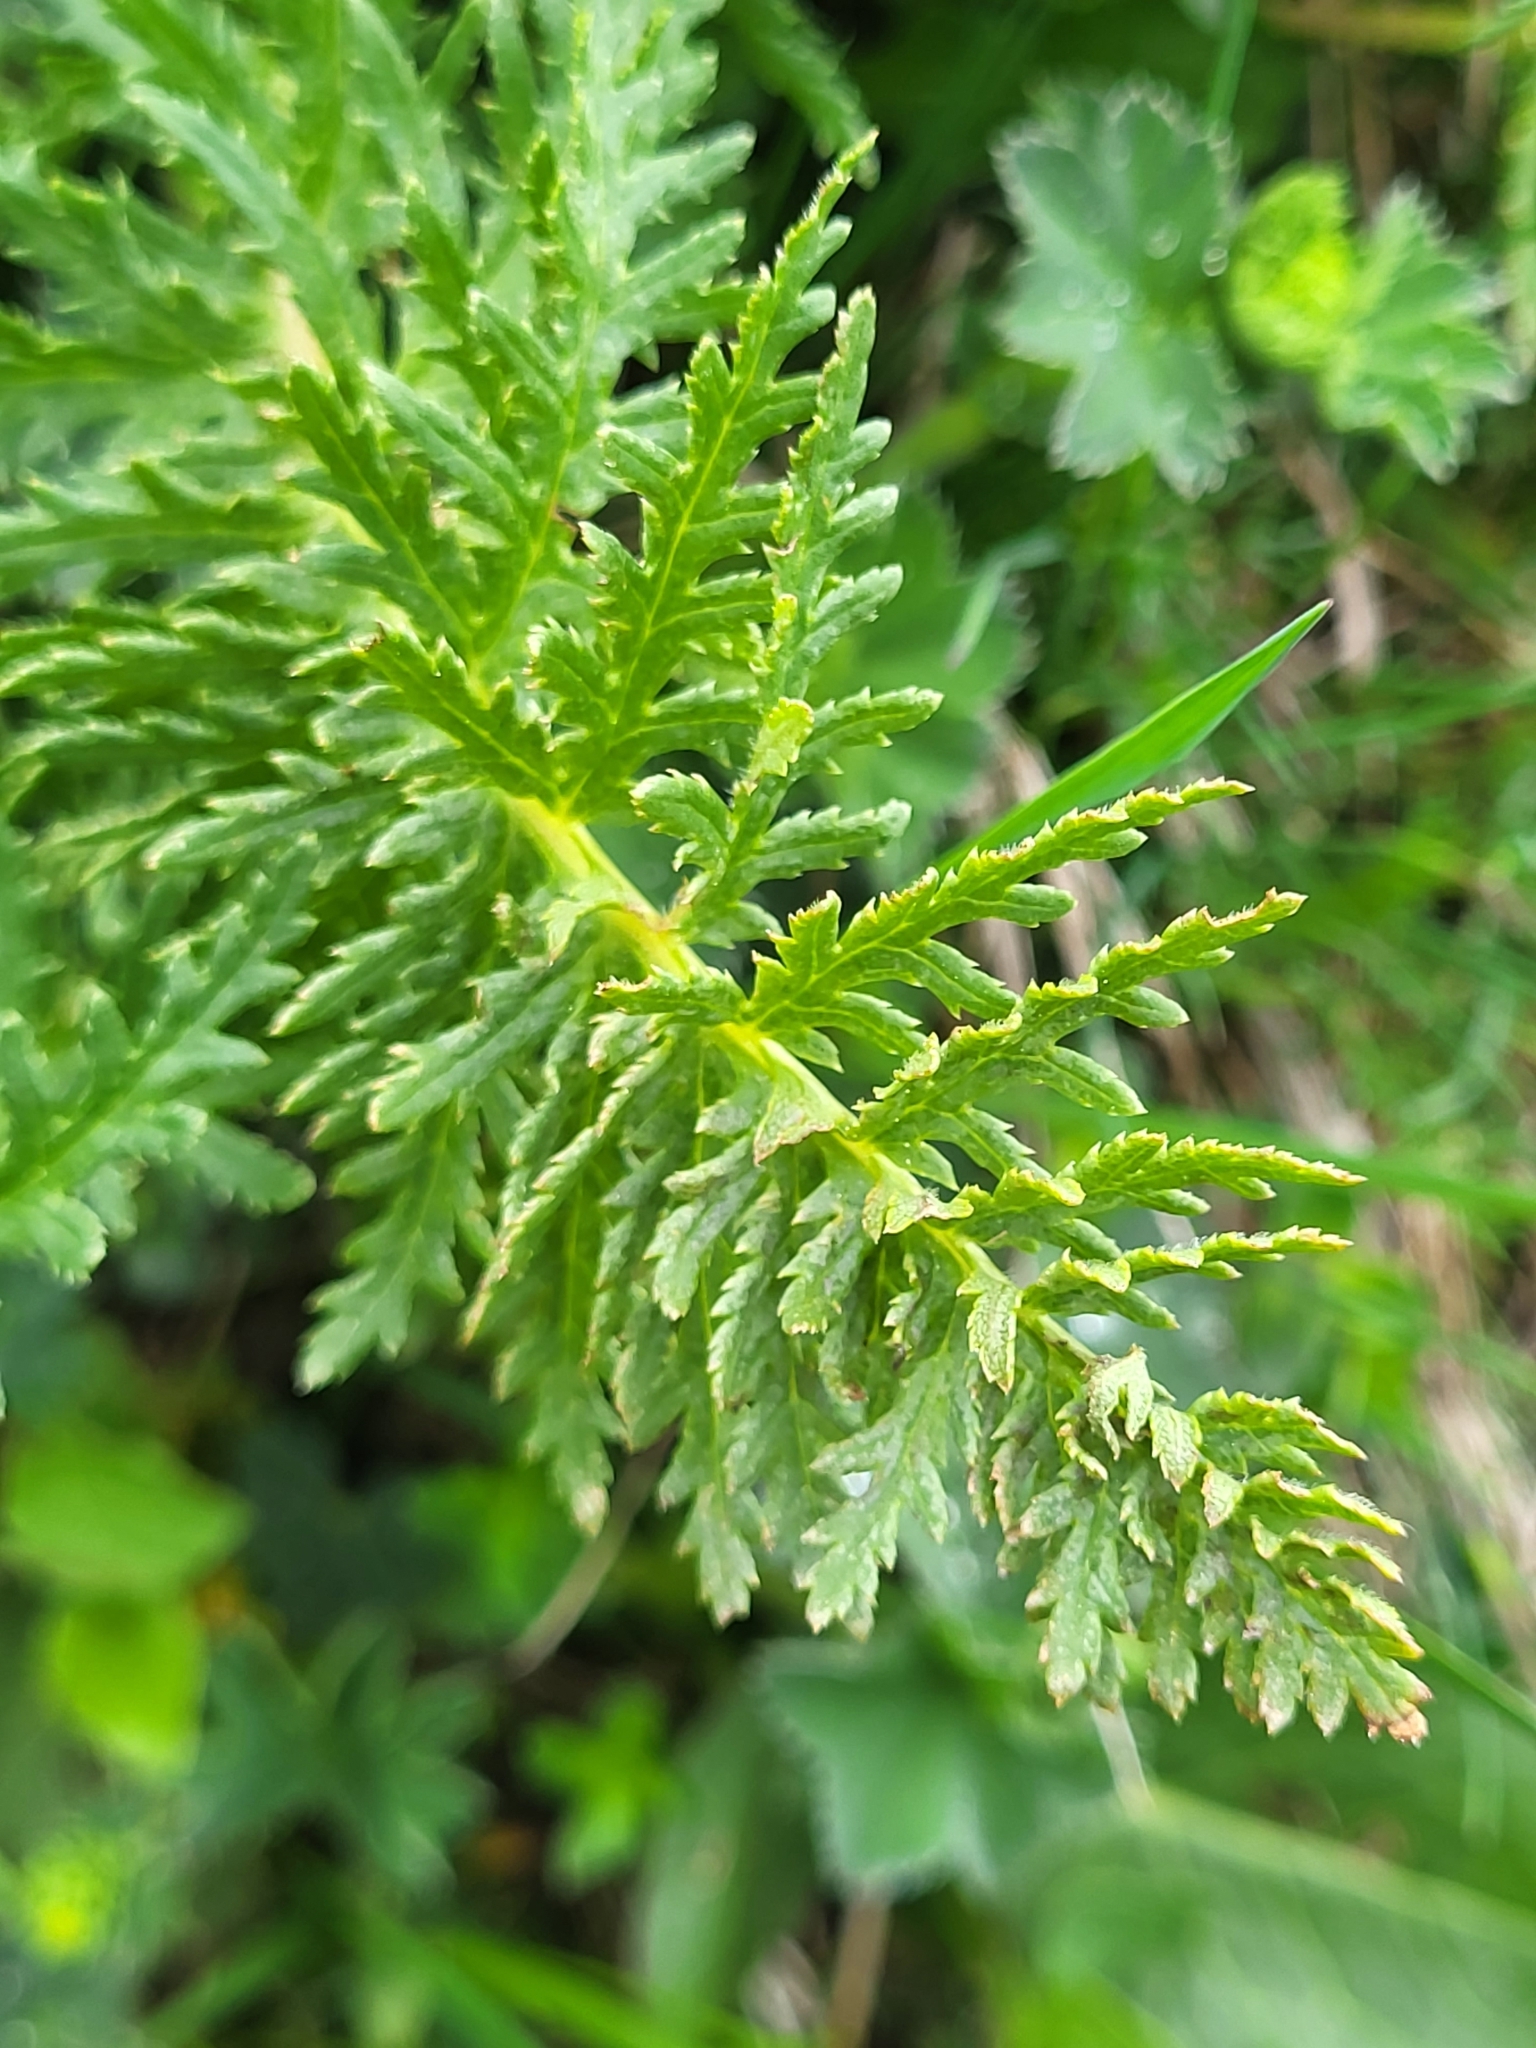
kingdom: Plantae
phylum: Tracheophyta
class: Magnoliopsida
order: Lamiales
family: Orobanchaceae
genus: Pedicularis
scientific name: Pedicularis condensata
